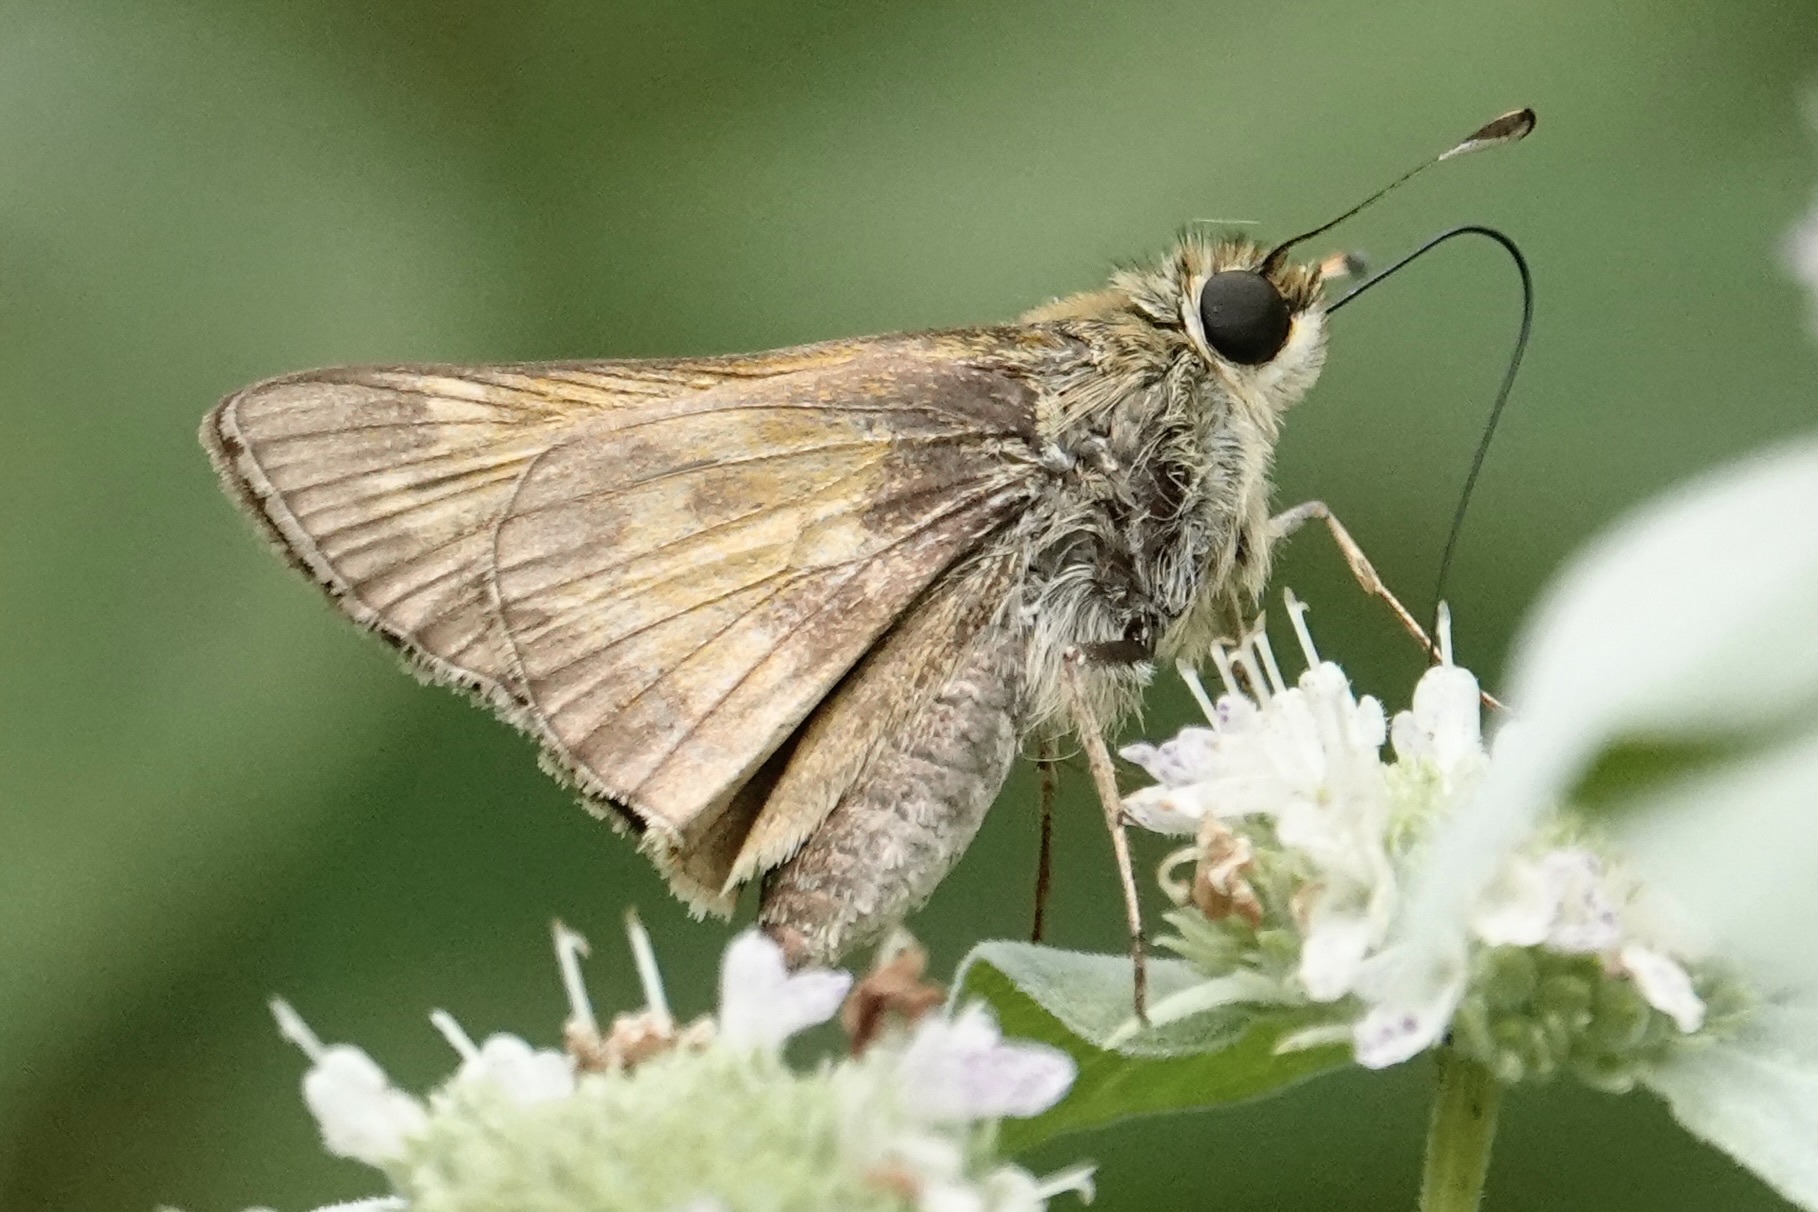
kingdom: Animalia
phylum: Arthropoda
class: Insecta
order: Lepidoptera
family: Hesperiidae
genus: Atalopedes
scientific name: Atalopedes
